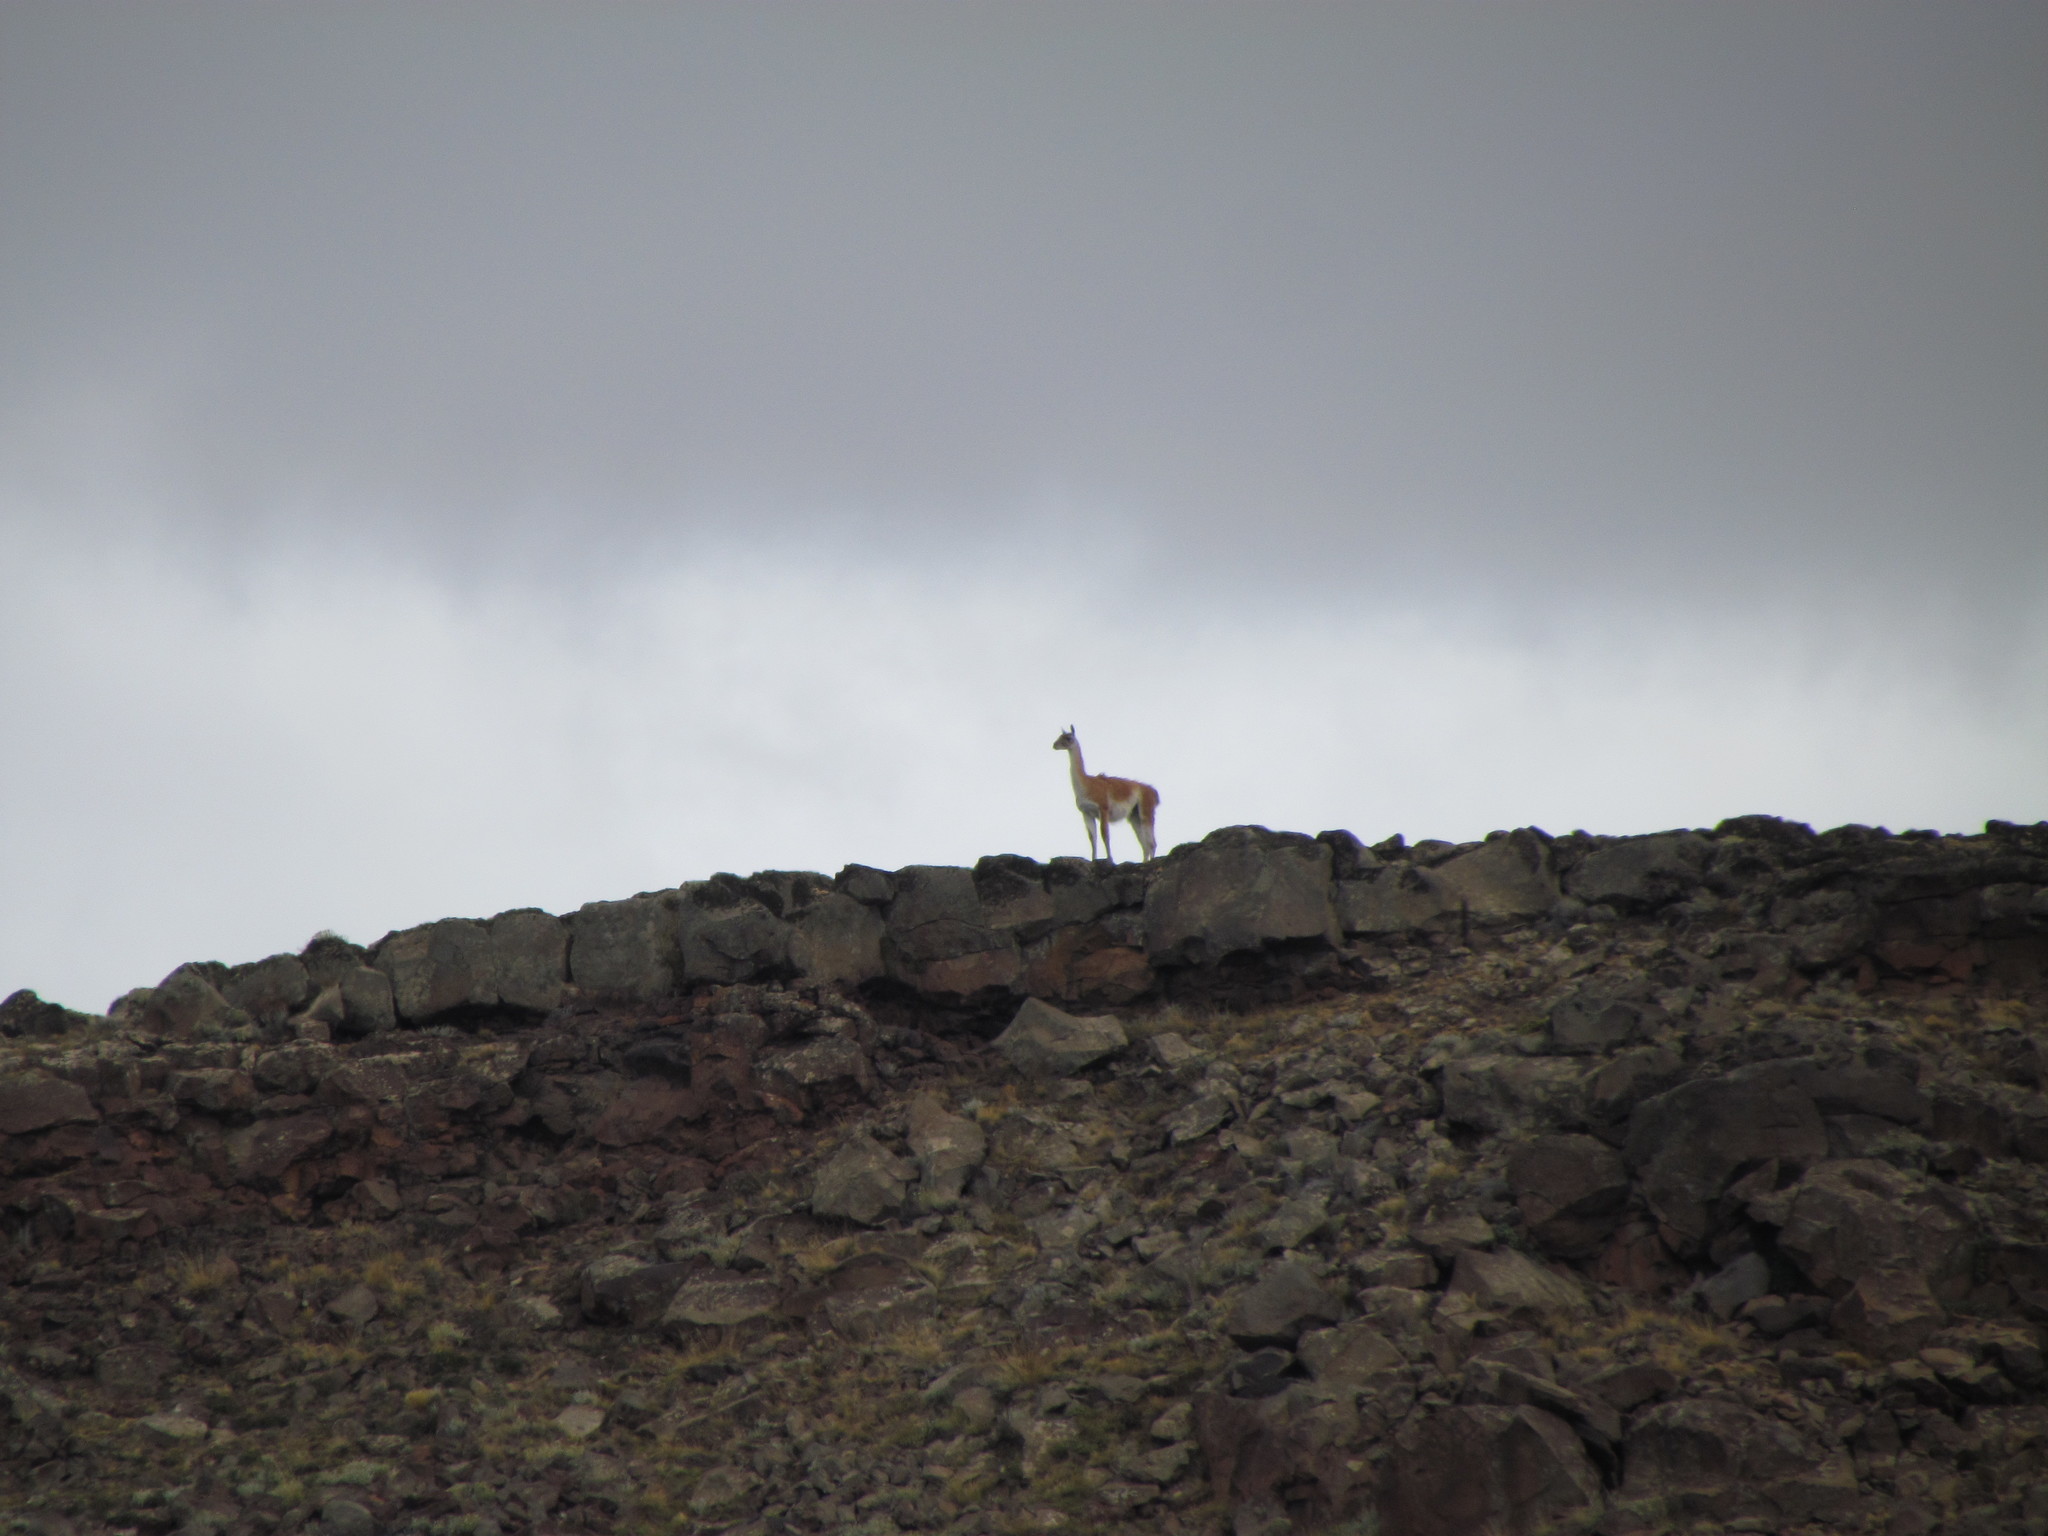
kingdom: Animalia
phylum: Chordata
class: Mammalia
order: Artiodactyla
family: Camelidae
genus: Lama
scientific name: Lama glama
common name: Llama
